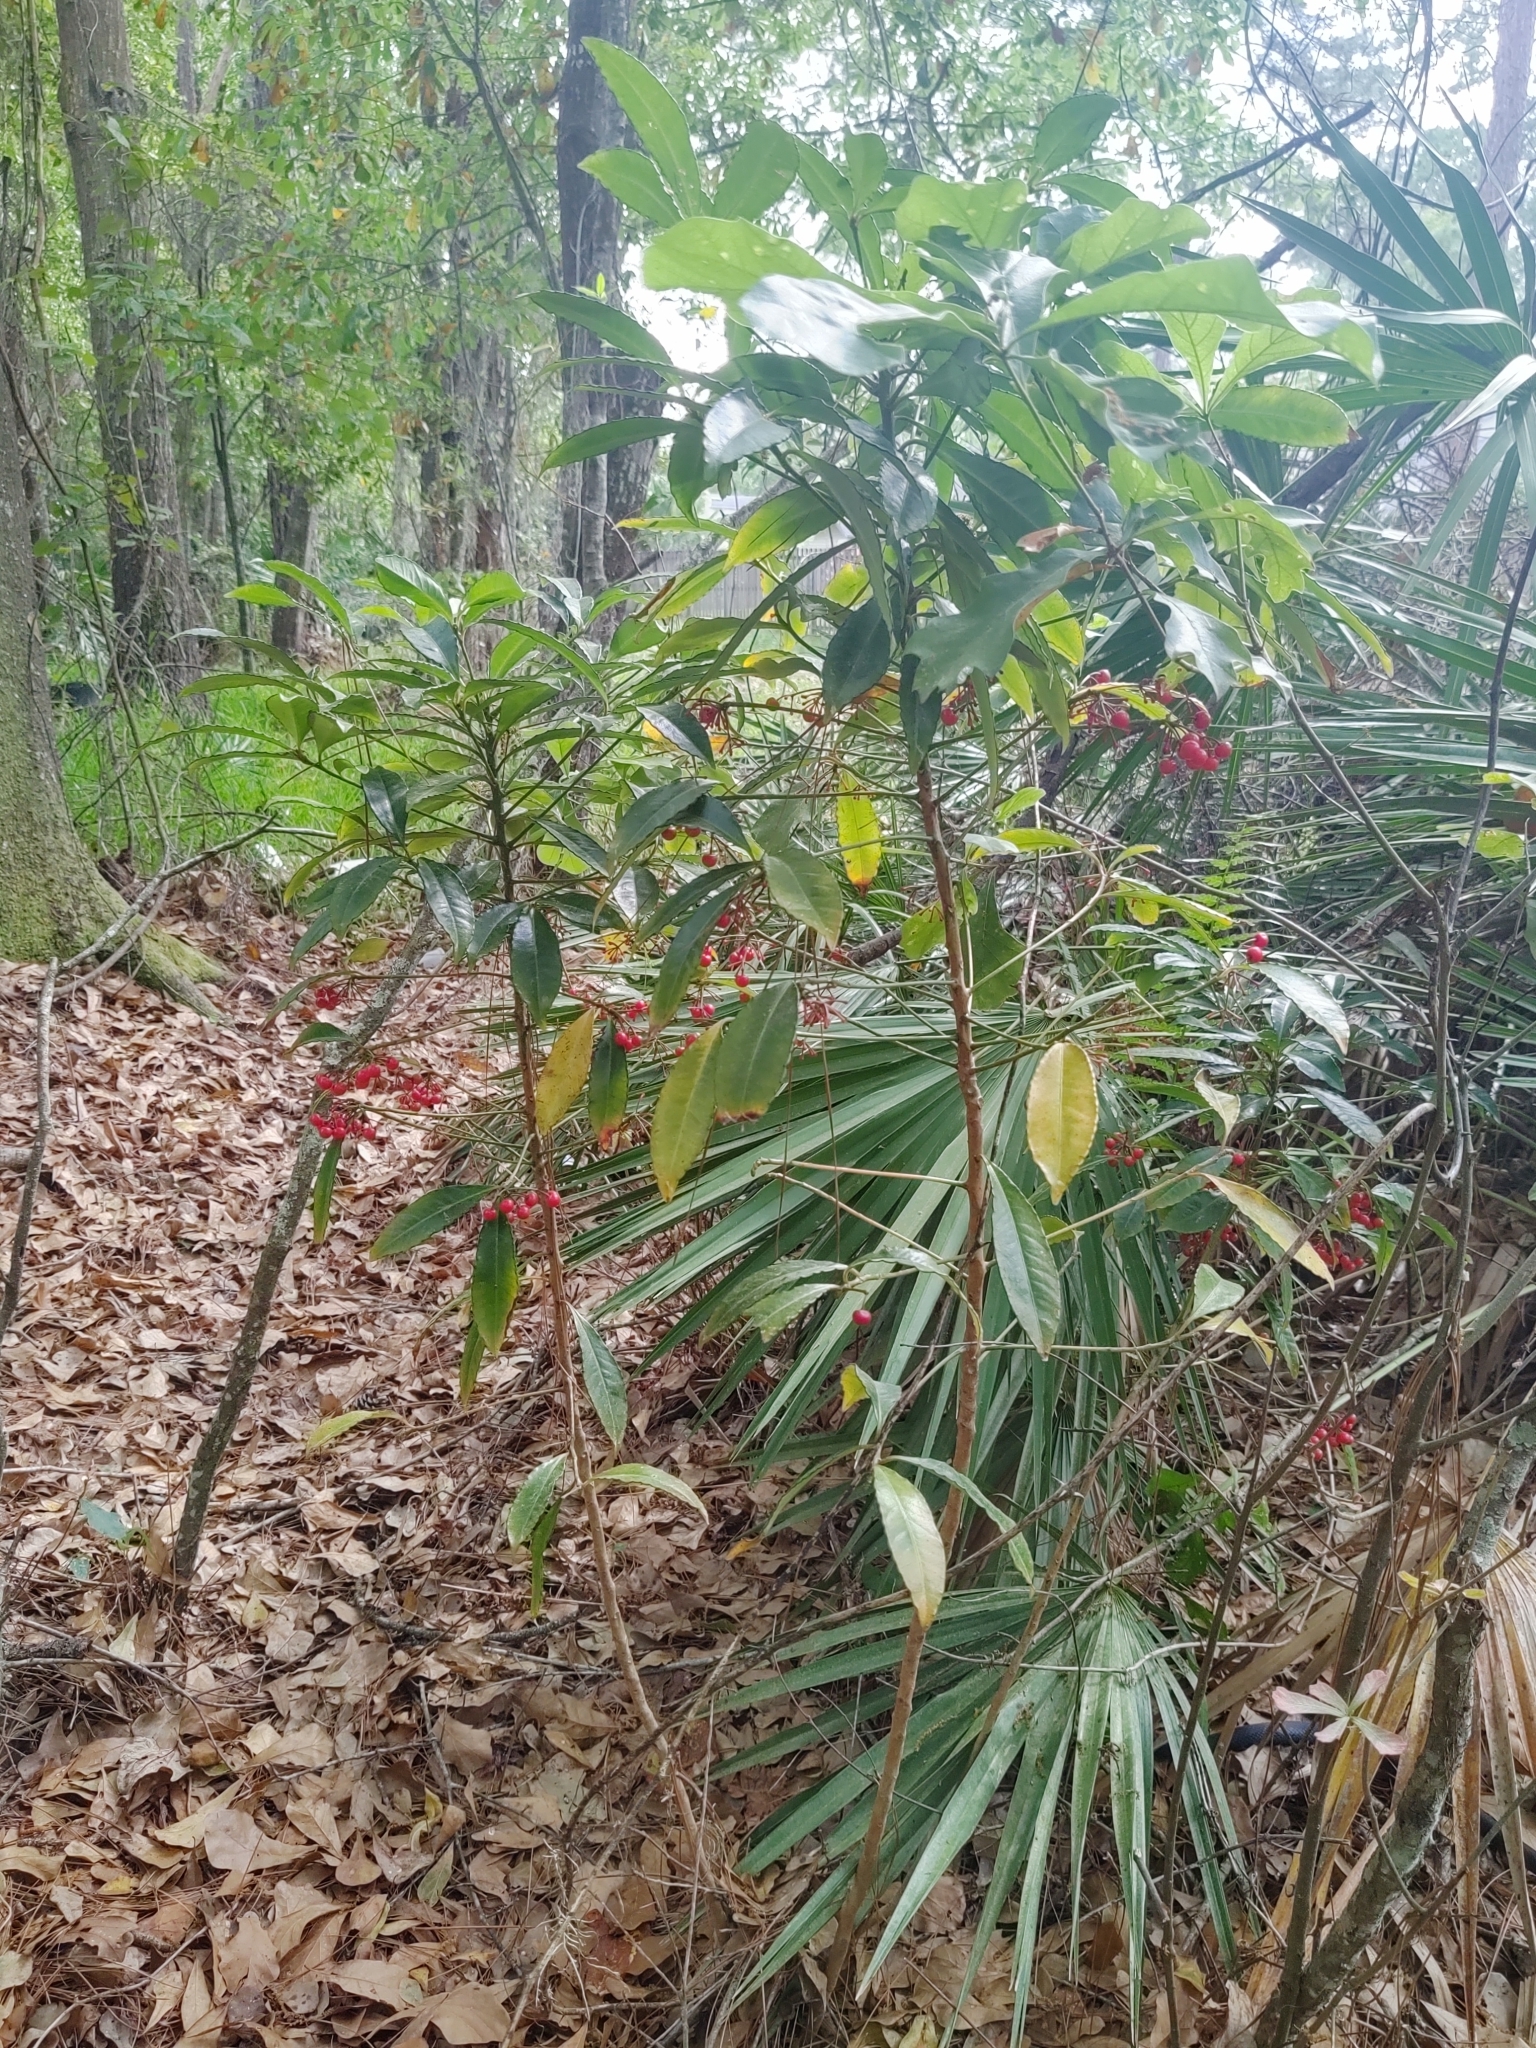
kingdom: Plantae
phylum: Tracheophyta
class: Magnoliopsida
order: Ericales
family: Primulaceae
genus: Ardisia
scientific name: Ardisia crenata
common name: Hen's eyes
